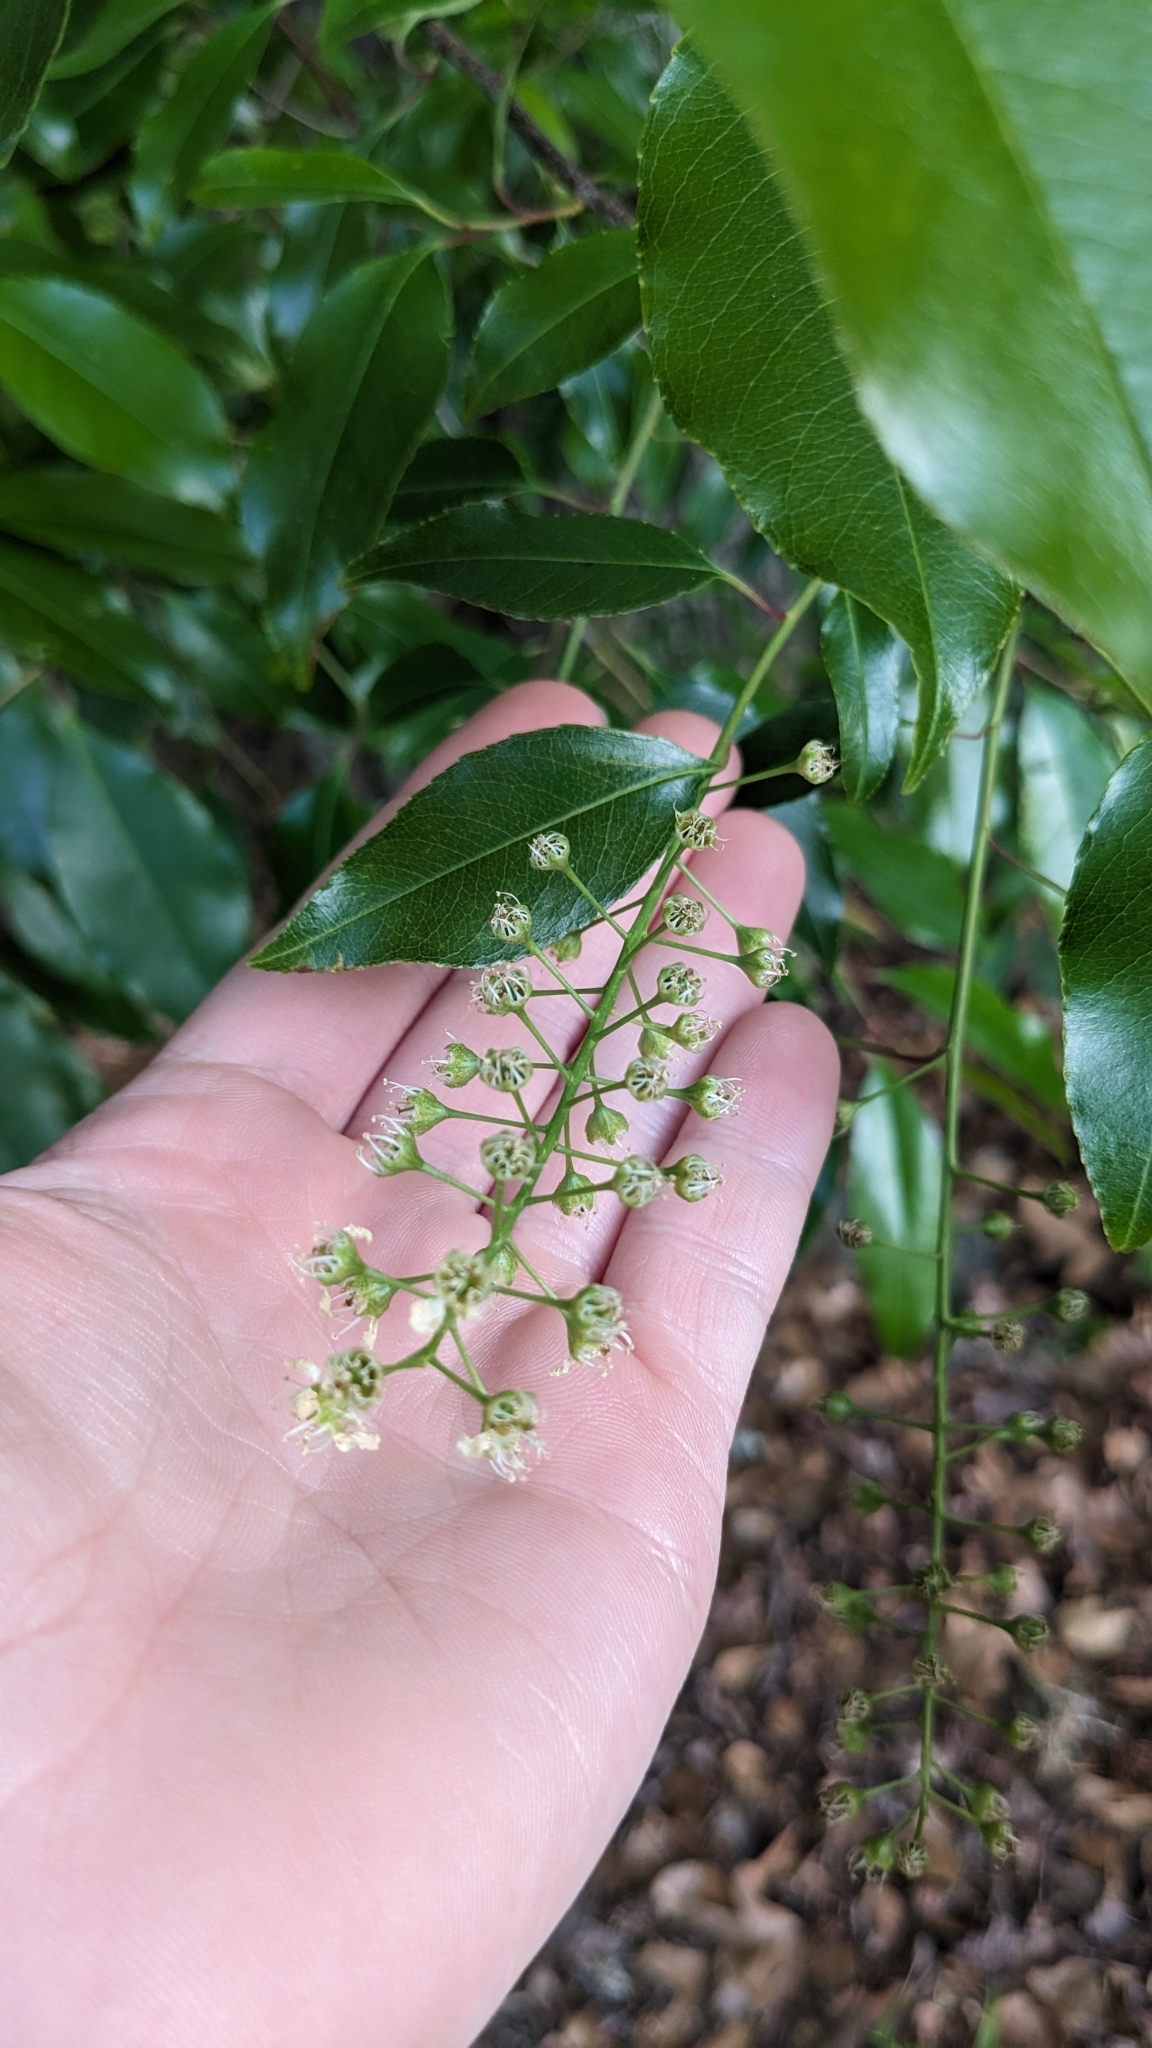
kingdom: Plantae
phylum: Tracheophyta
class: Magnoliopsida
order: Rosales
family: Rosaceae
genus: Prunus
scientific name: Prunus serotina
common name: Black cherry
